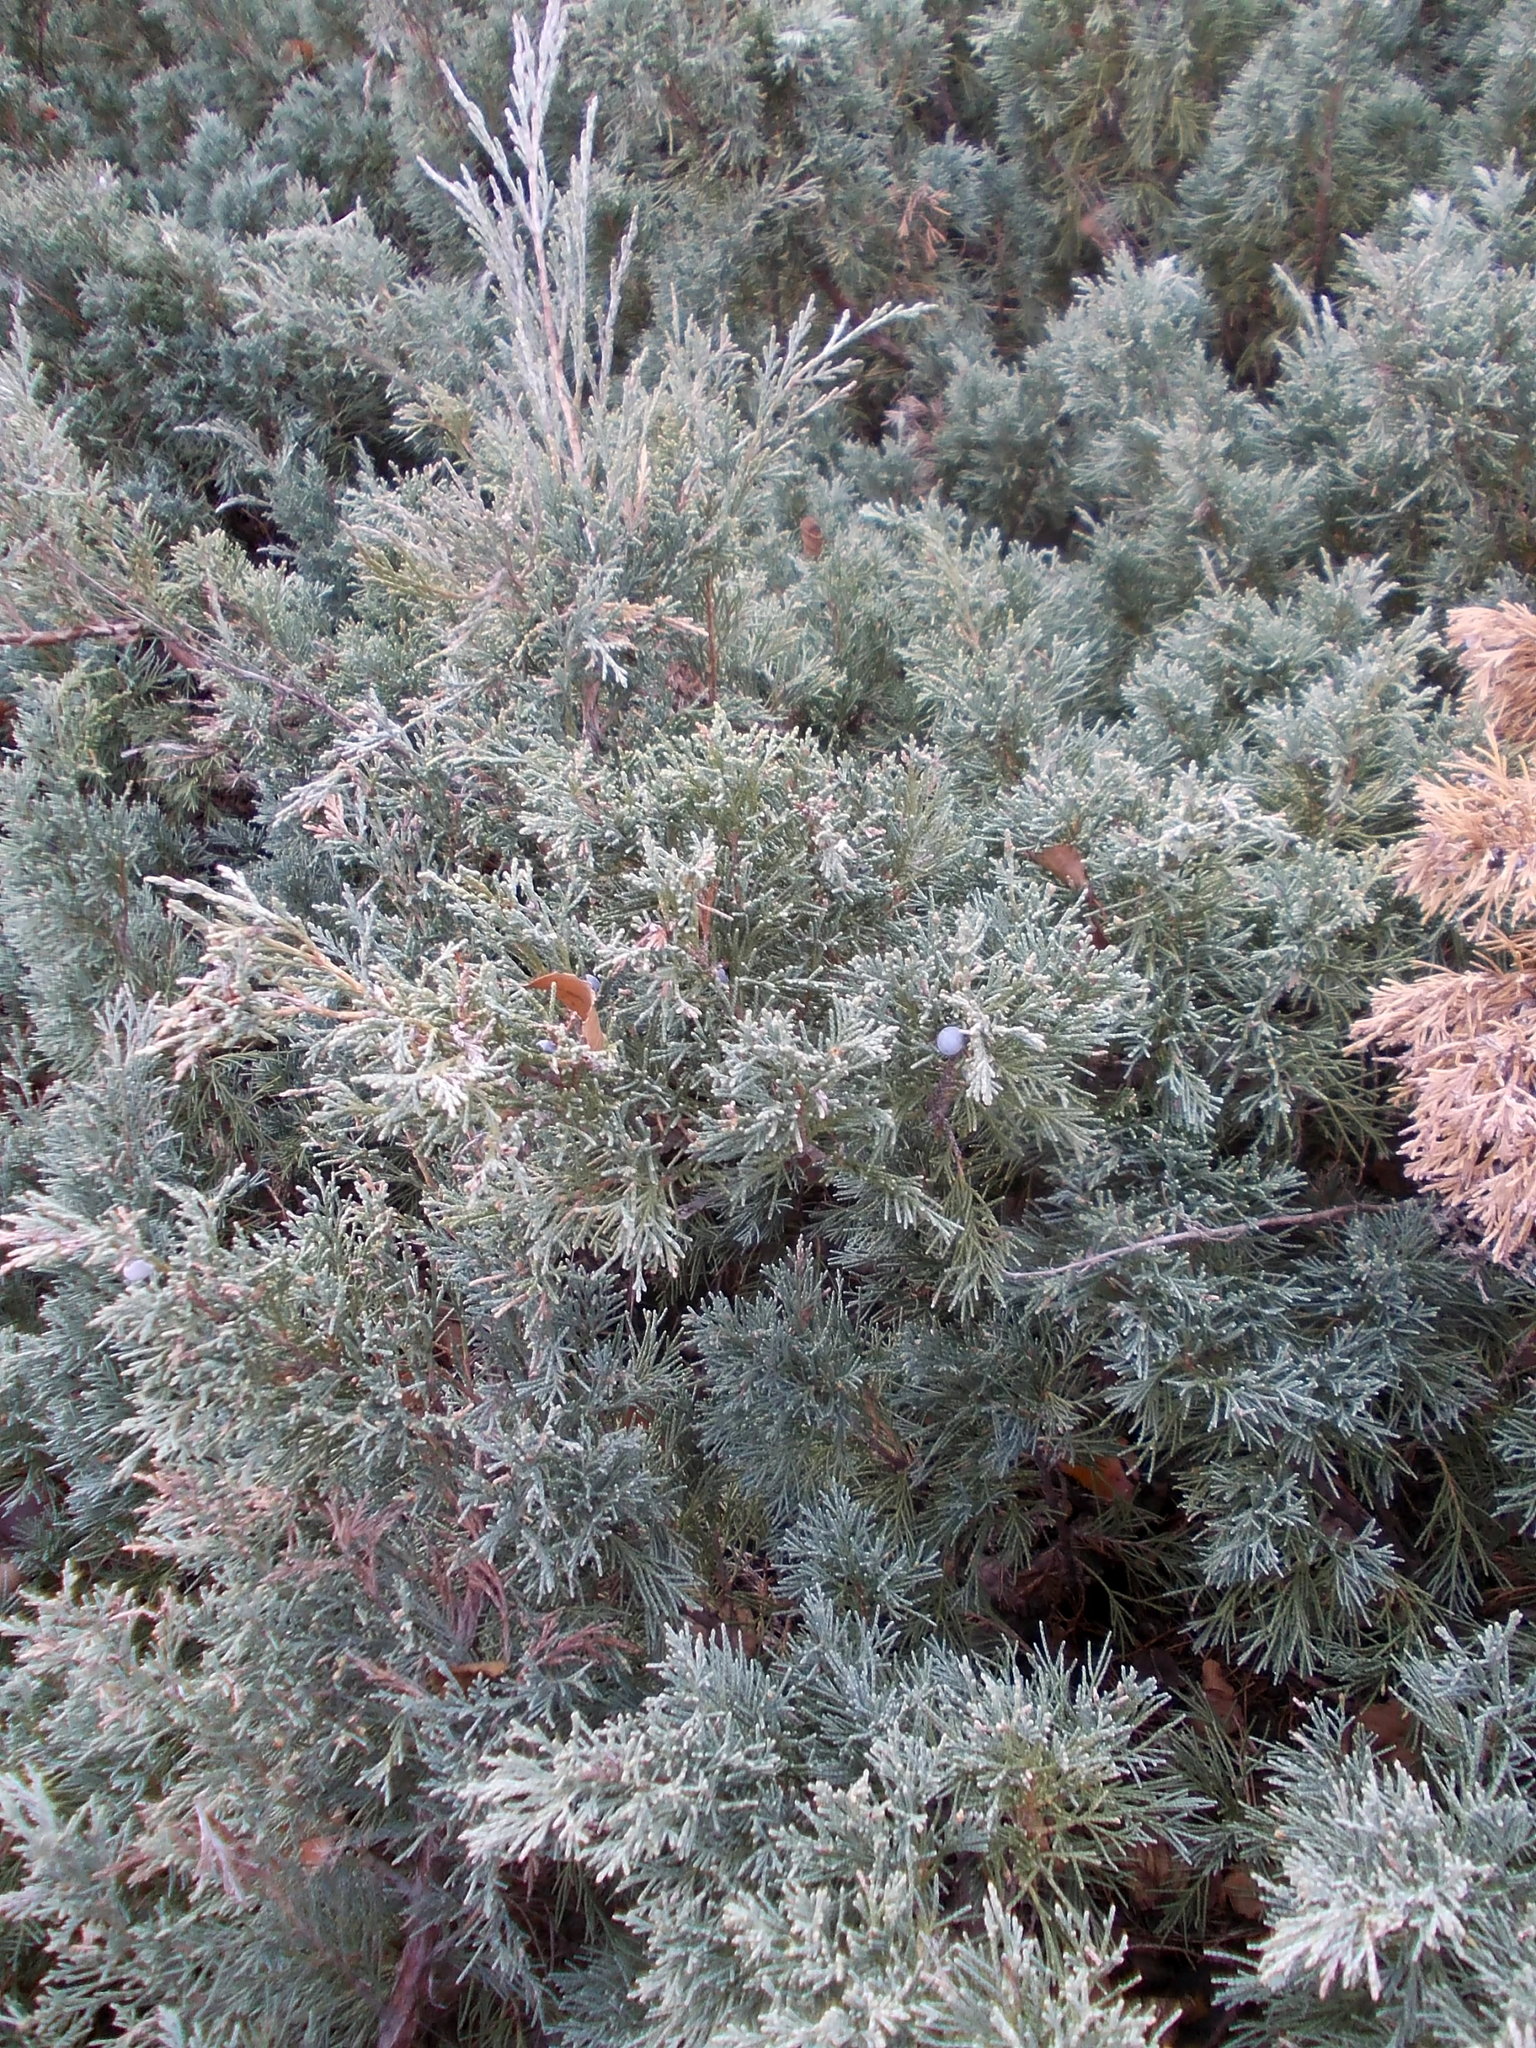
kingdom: Plantae
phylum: Tracheophyta
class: Pinopsida
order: Pinales
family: Cupressaceae
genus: Juniperus
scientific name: Juniperus sabina
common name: Savin
